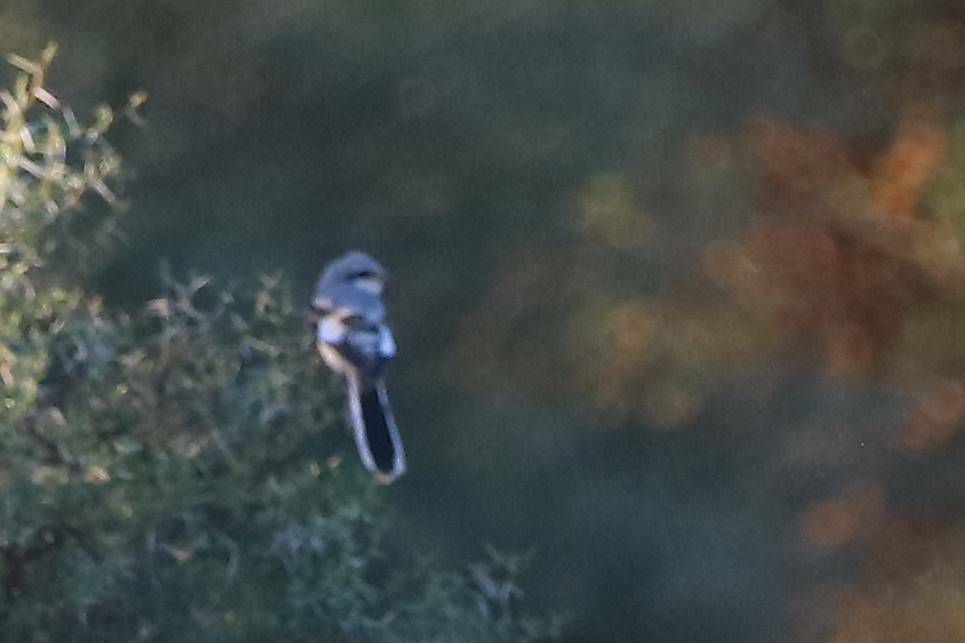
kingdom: Animalia
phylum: Chordata
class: Aves
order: Passeriformes
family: Laniidae
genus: Lanius
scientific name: Lanius excubitor
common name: Great grey shrike
